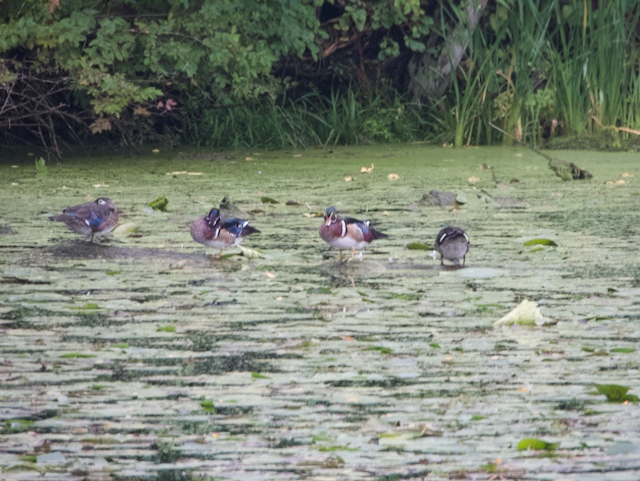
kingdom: Animalia
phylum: Chordata
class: Aves
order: Anseriformes
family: Anatidae
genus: Aix
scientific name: Aix sponsa
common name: Wood duck
